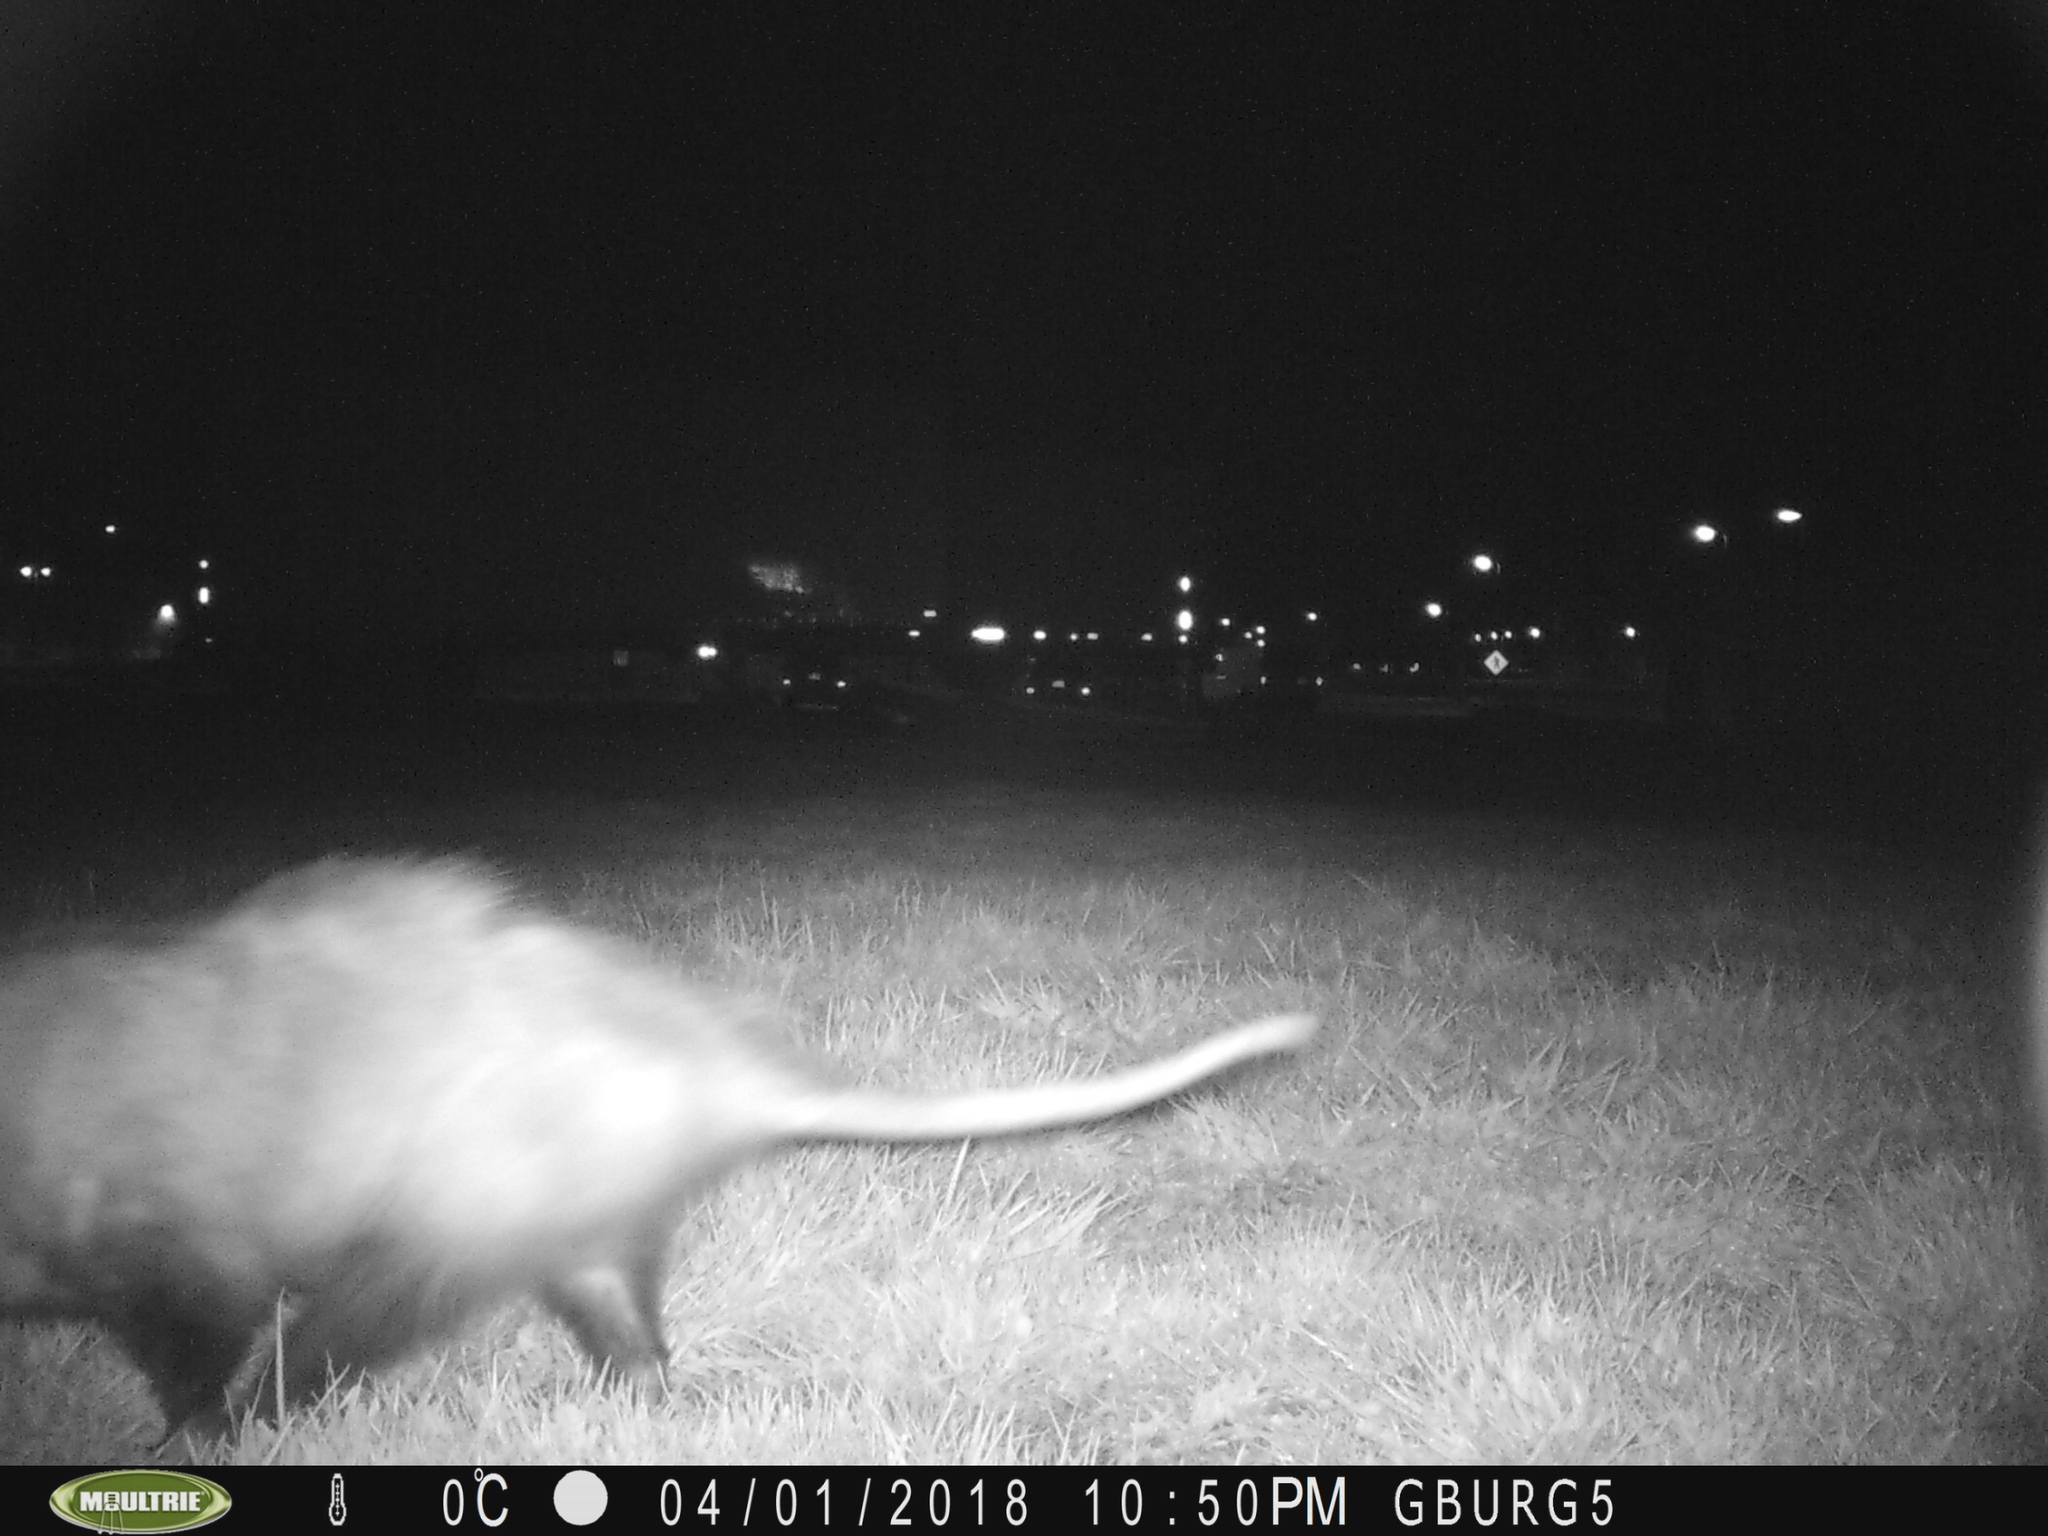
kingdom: Animalia
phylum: Chordata
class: Mammalia
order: Didelphimorphia
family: Didelphidae
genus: Didelphis
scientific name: Didelphis virginiana
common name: Virginia opossum
